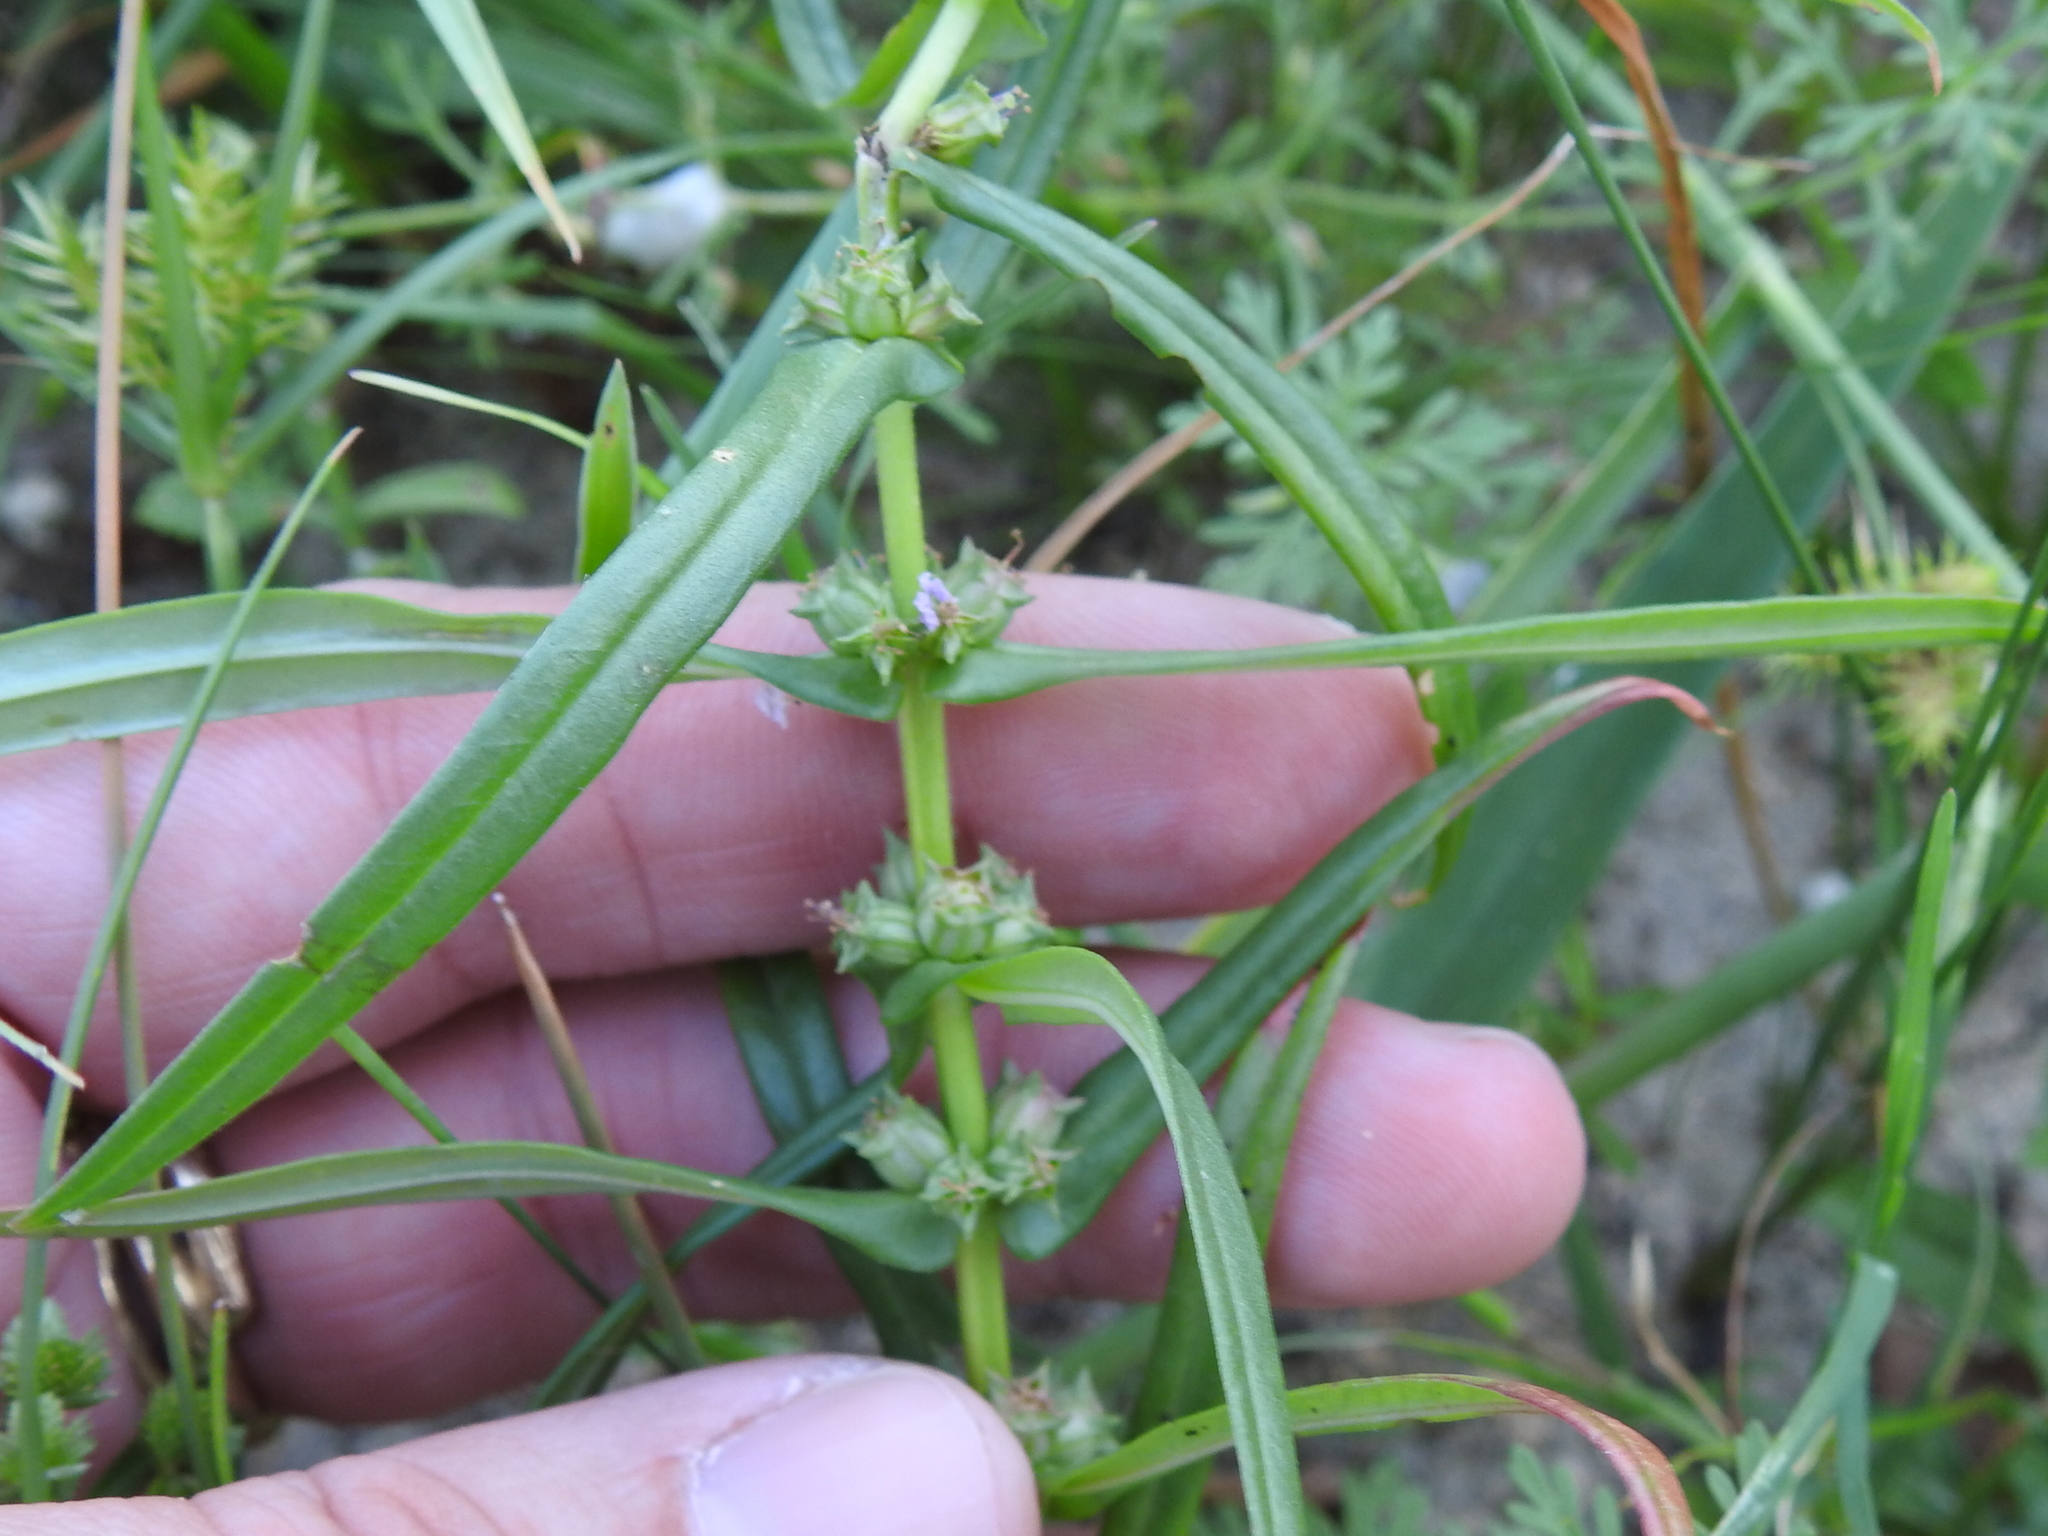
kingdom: Plantae
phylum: Tracheophyta
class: Magnoliopsida
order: Myrtales
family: Lythraceae
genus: Ammannia
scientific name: Ammannia robusta
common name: Grand ammannia
